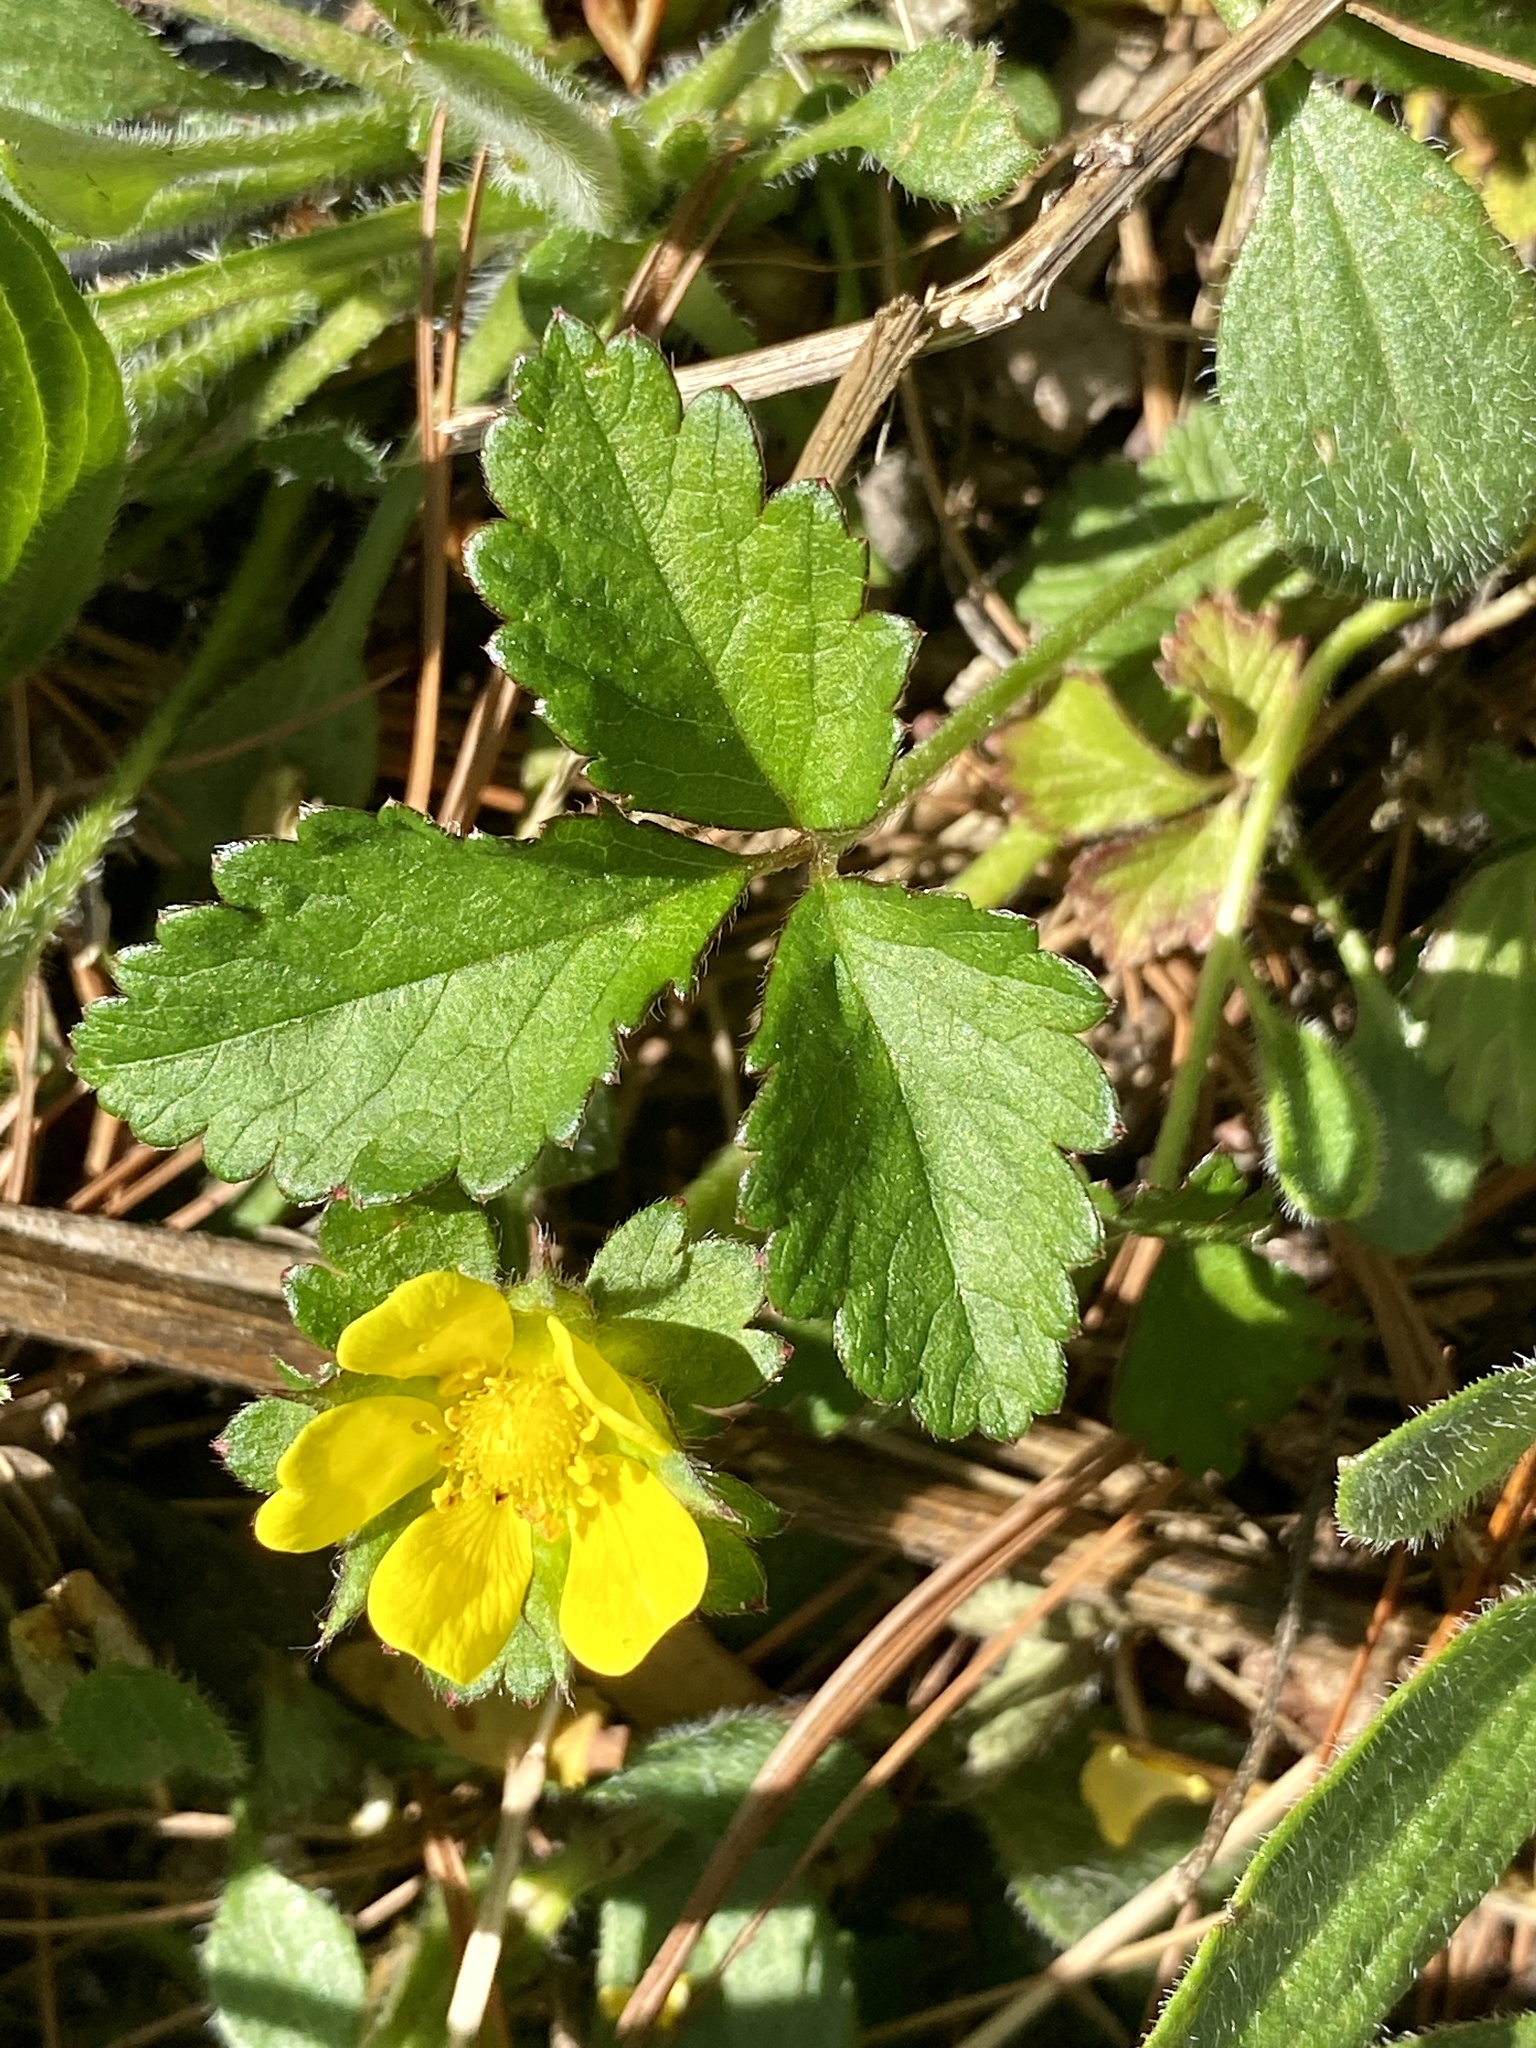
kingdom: Plantae
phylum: Tracheophyta
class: Magnoliopsida
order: Rosales
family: Rosaceae
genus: Potentilla
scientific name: Potentilla indica
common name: Yellow-flowered strawberry
